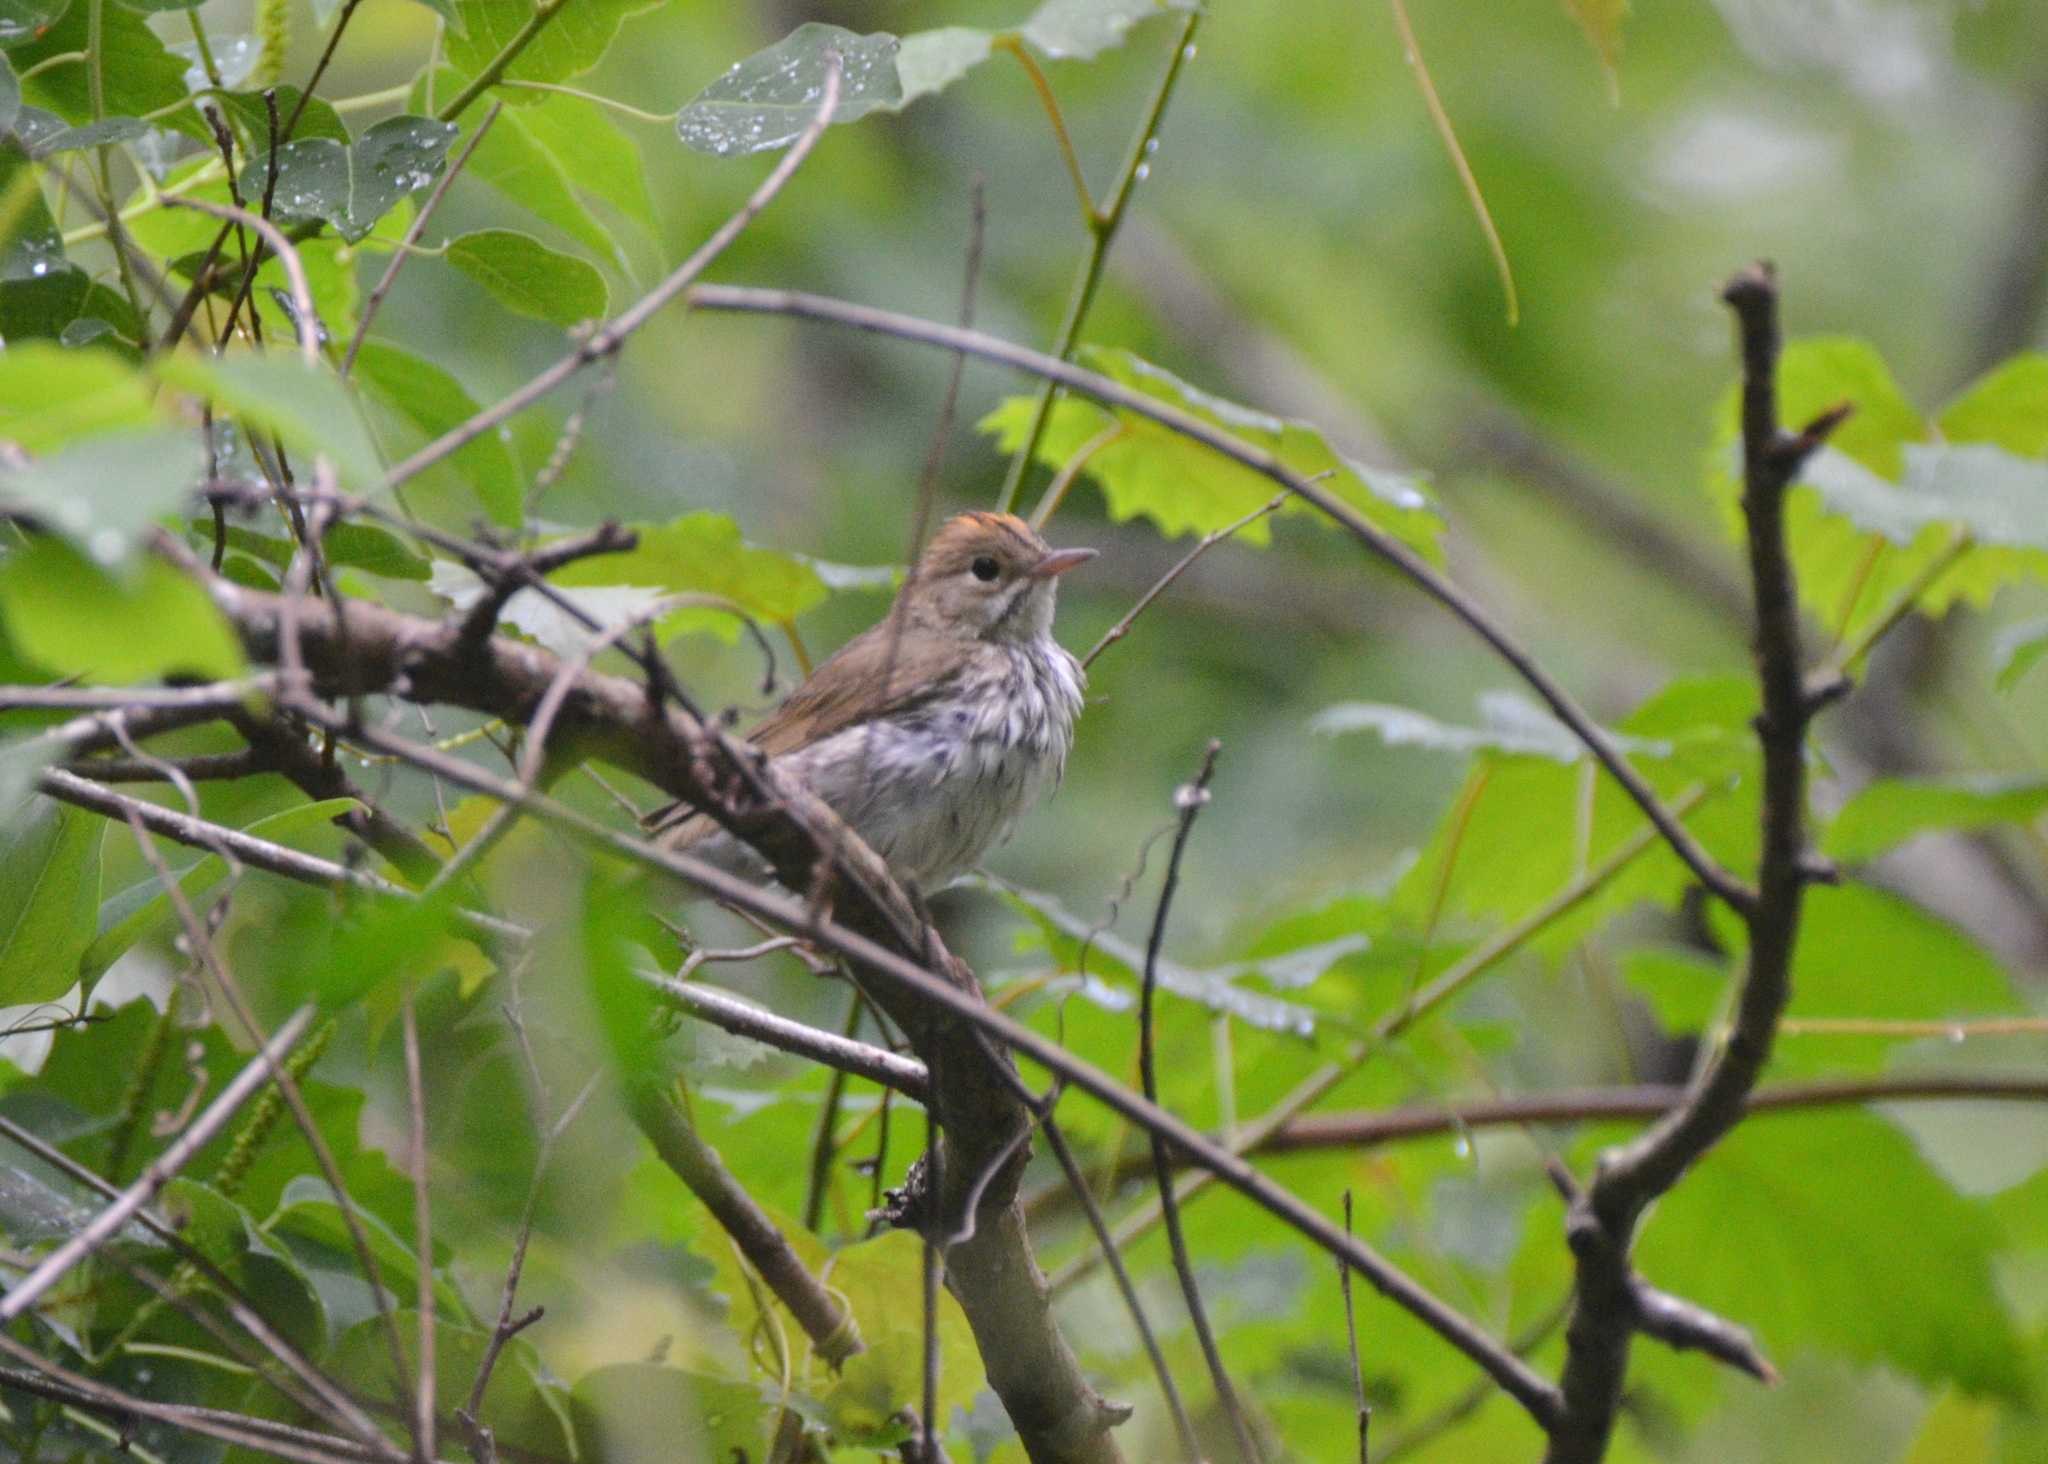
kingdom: Animalia
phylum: Chordata
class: Aves
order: Passeriformes
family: Parulidae
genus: Seiurus
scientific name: Seiurus aurocapilla
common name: Ovenbird
